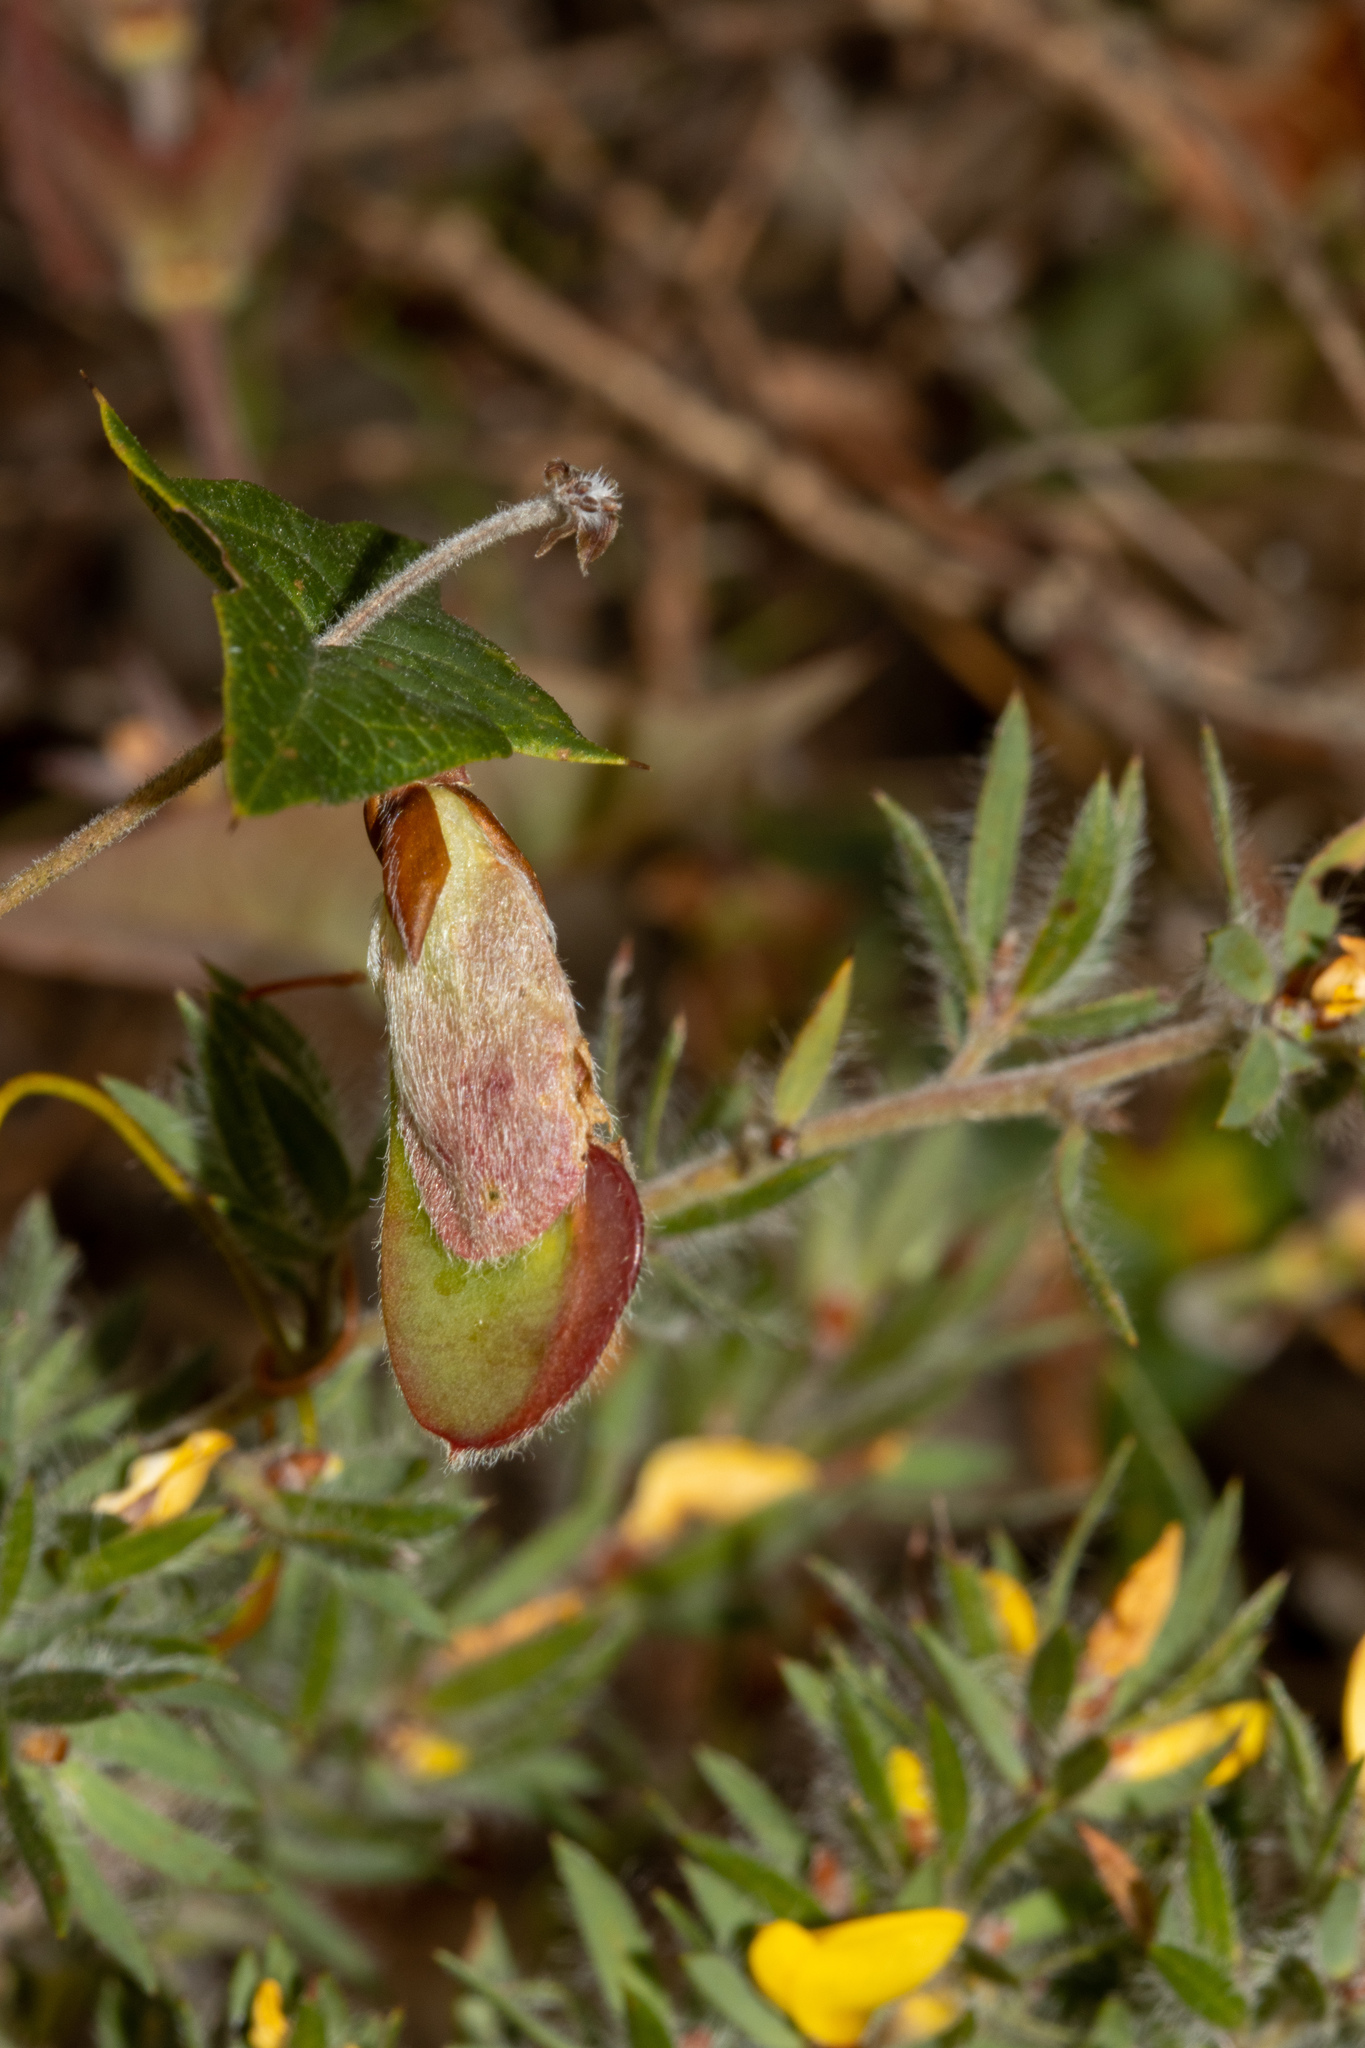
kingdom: Plantae
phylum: Tracheophyta
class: Magnoliopsida
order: Fabales
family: Fabaceae
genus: Platylobium
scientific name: Platylobium obtusangulum
